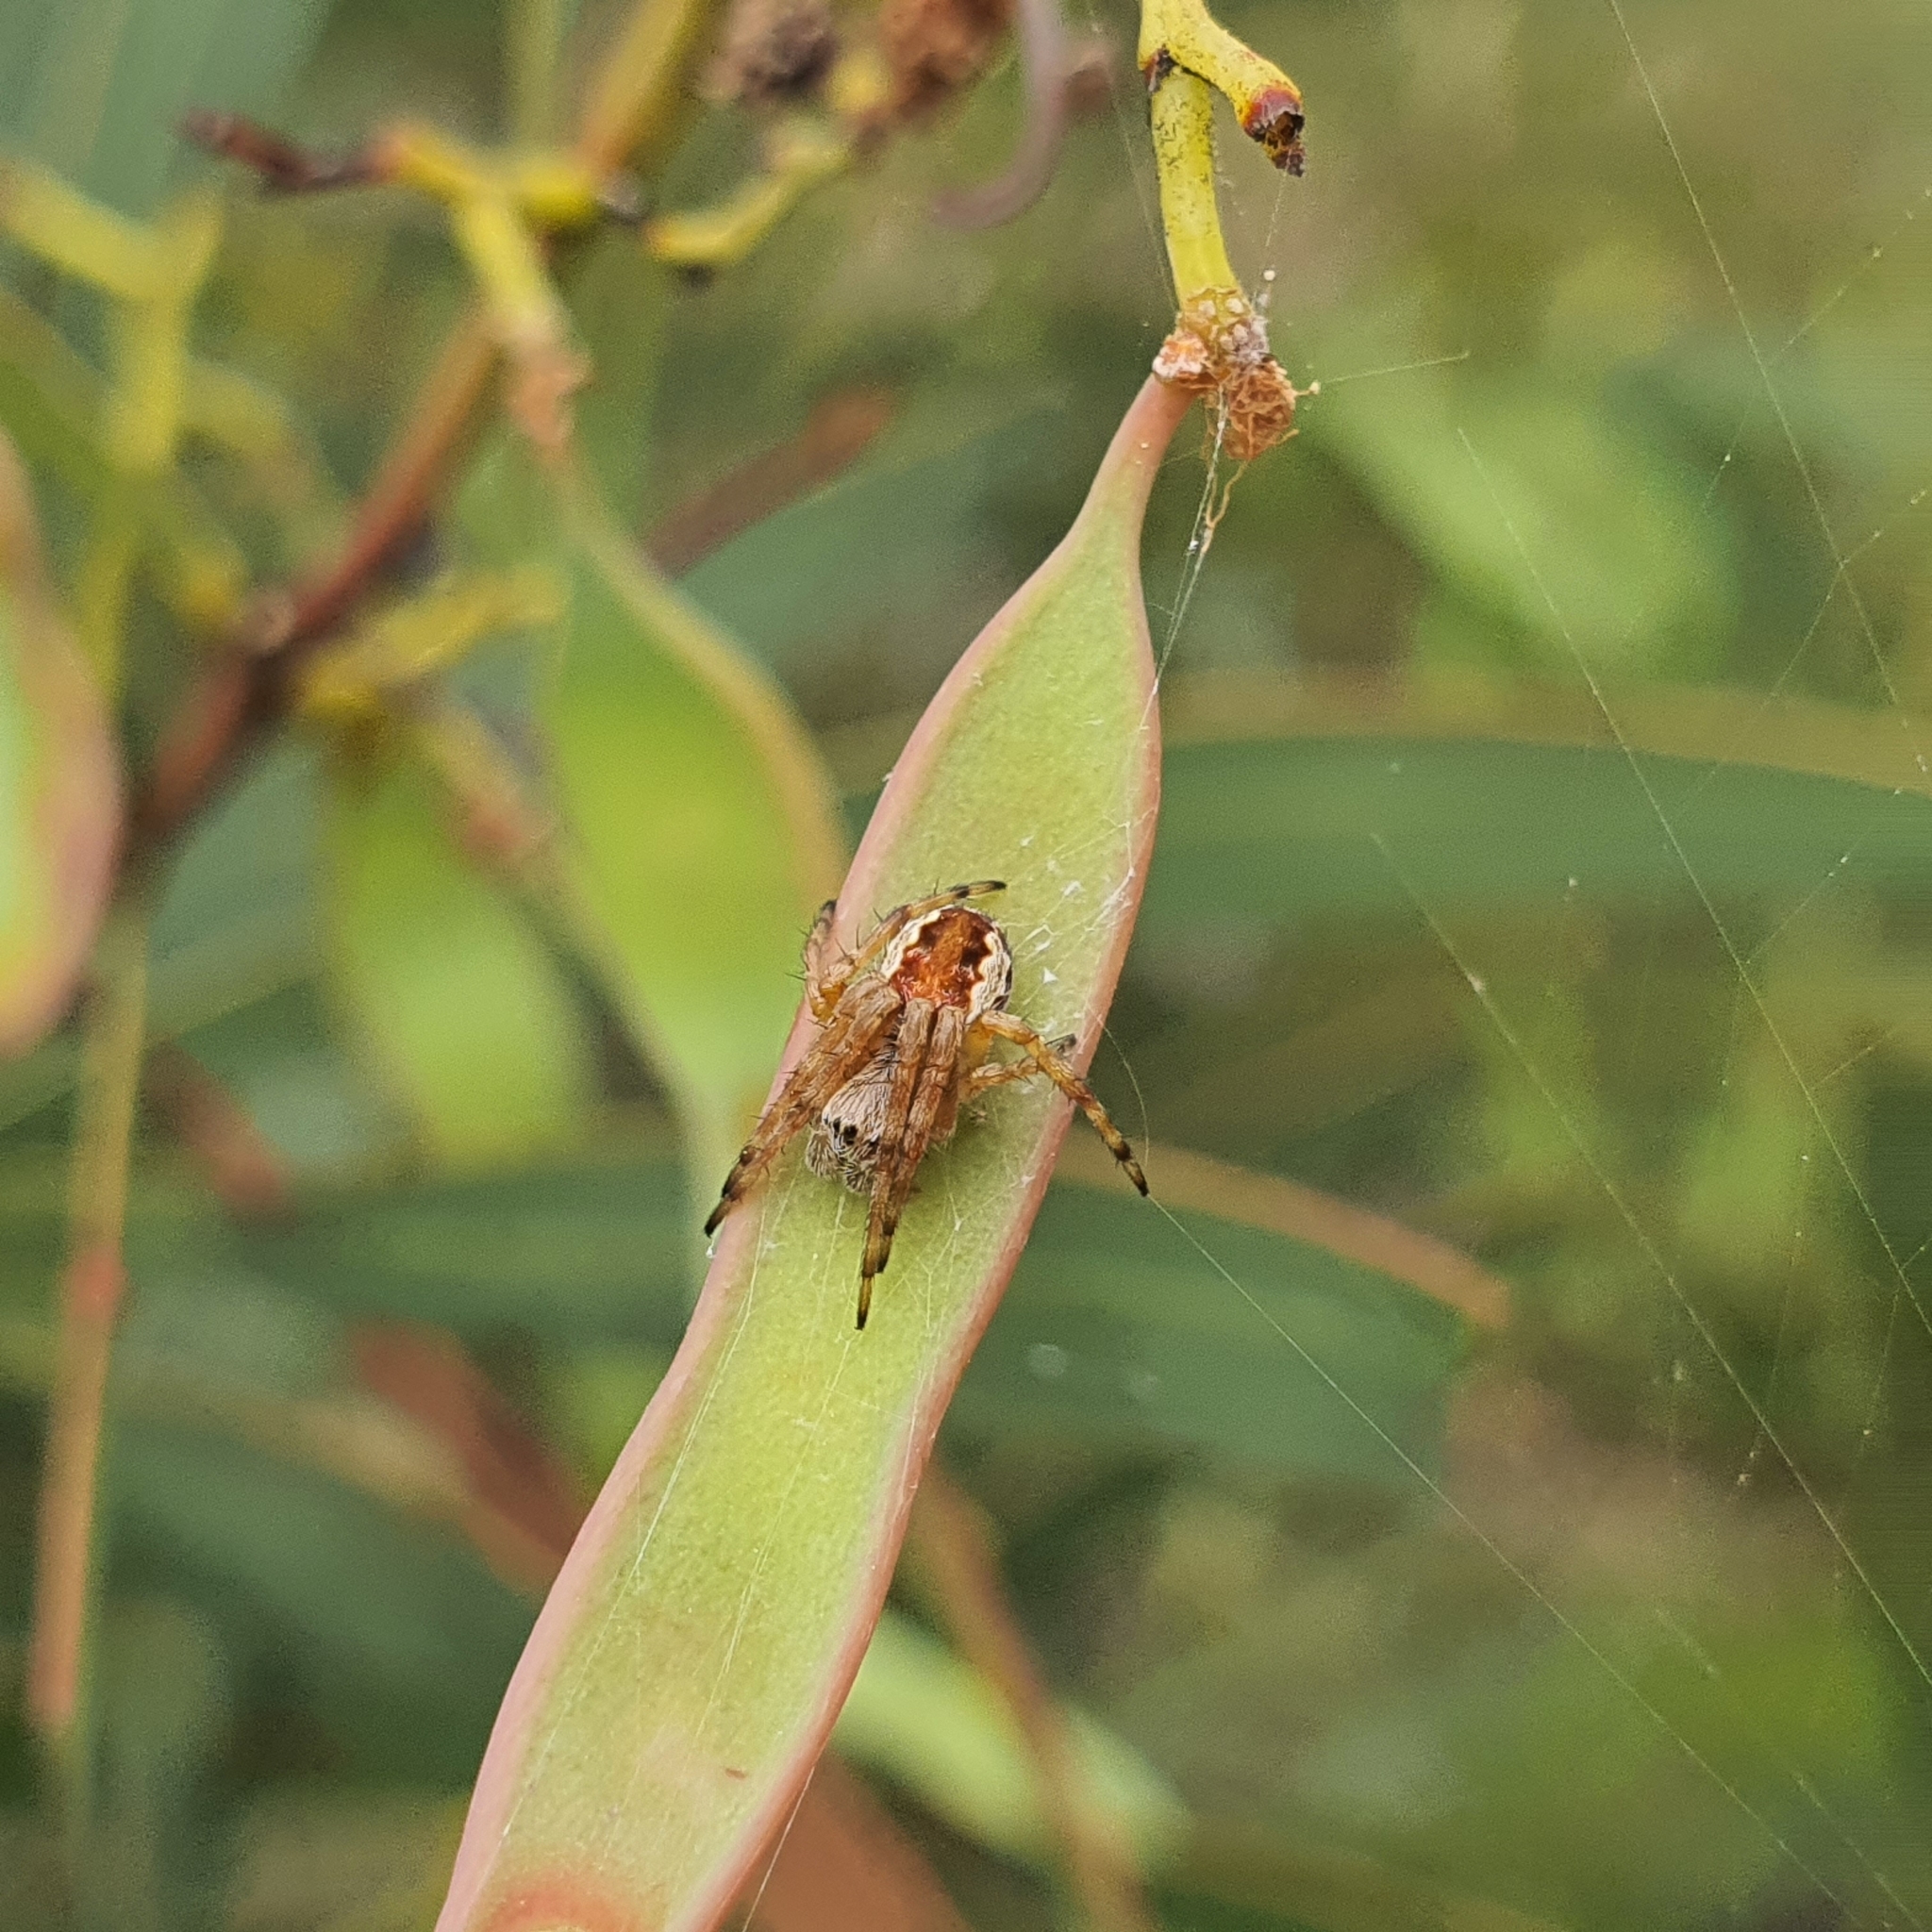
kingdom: Animalia
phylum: Arthropoda
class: Arachnida
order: Araneae
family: Araneidae
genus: Salsa
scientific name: Salsa fuliginata
